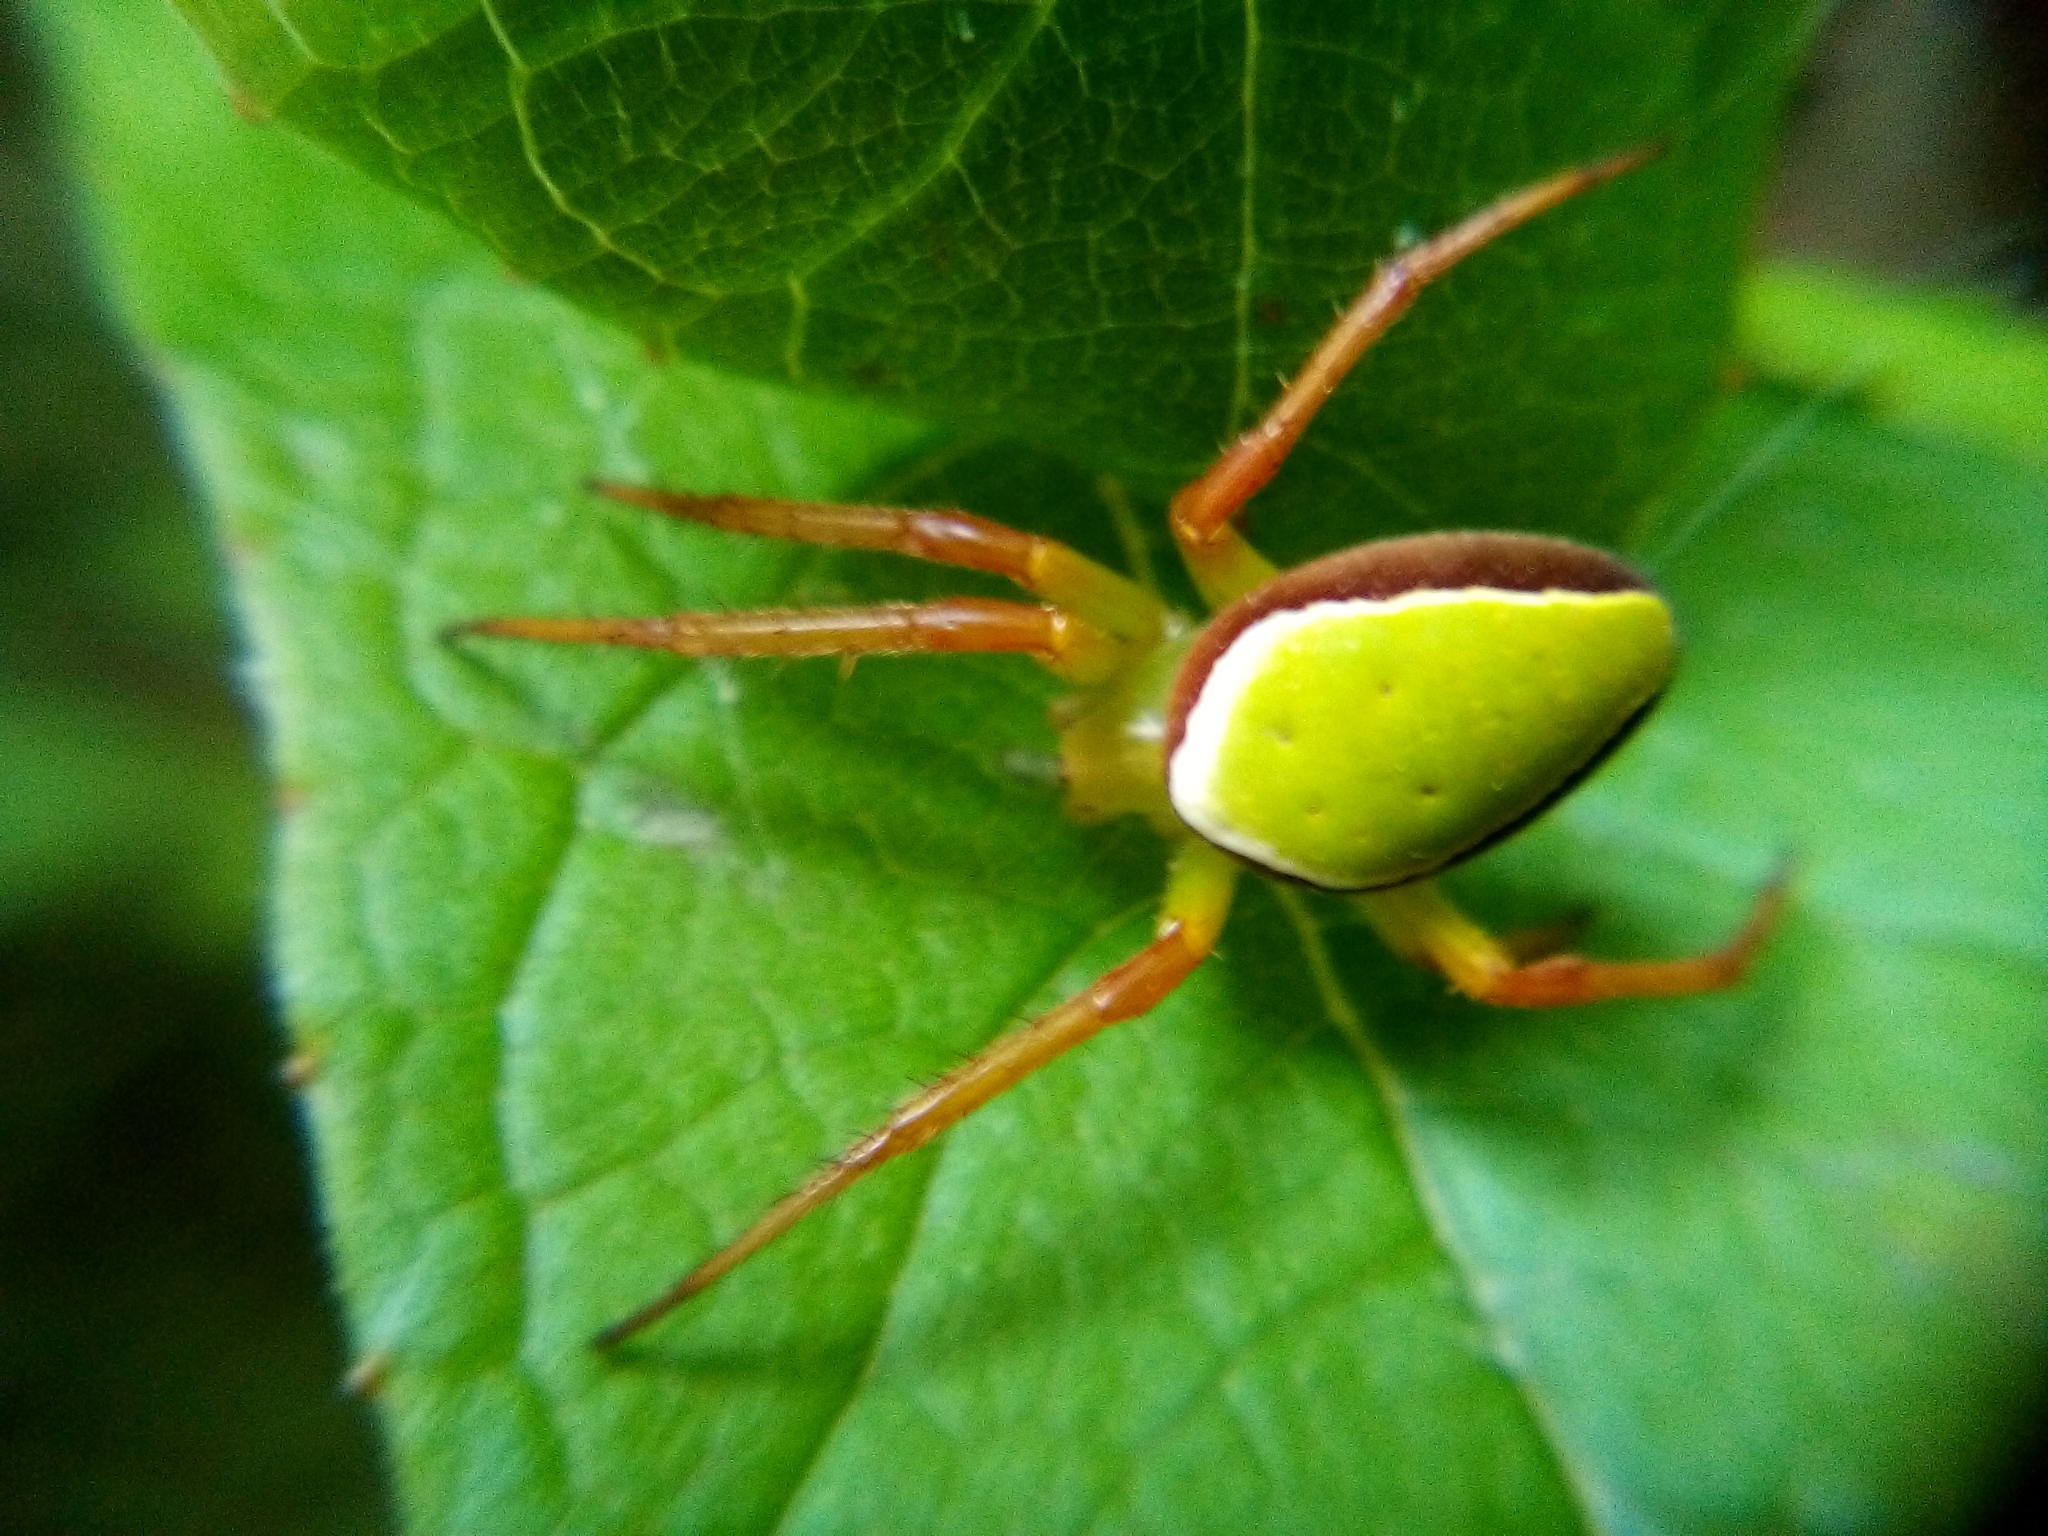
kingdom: Animalia
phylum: Arthropoda
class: Arachnida
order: Araneae
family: Araneidae
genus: Colaranea
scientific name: Colaranea viriditas
